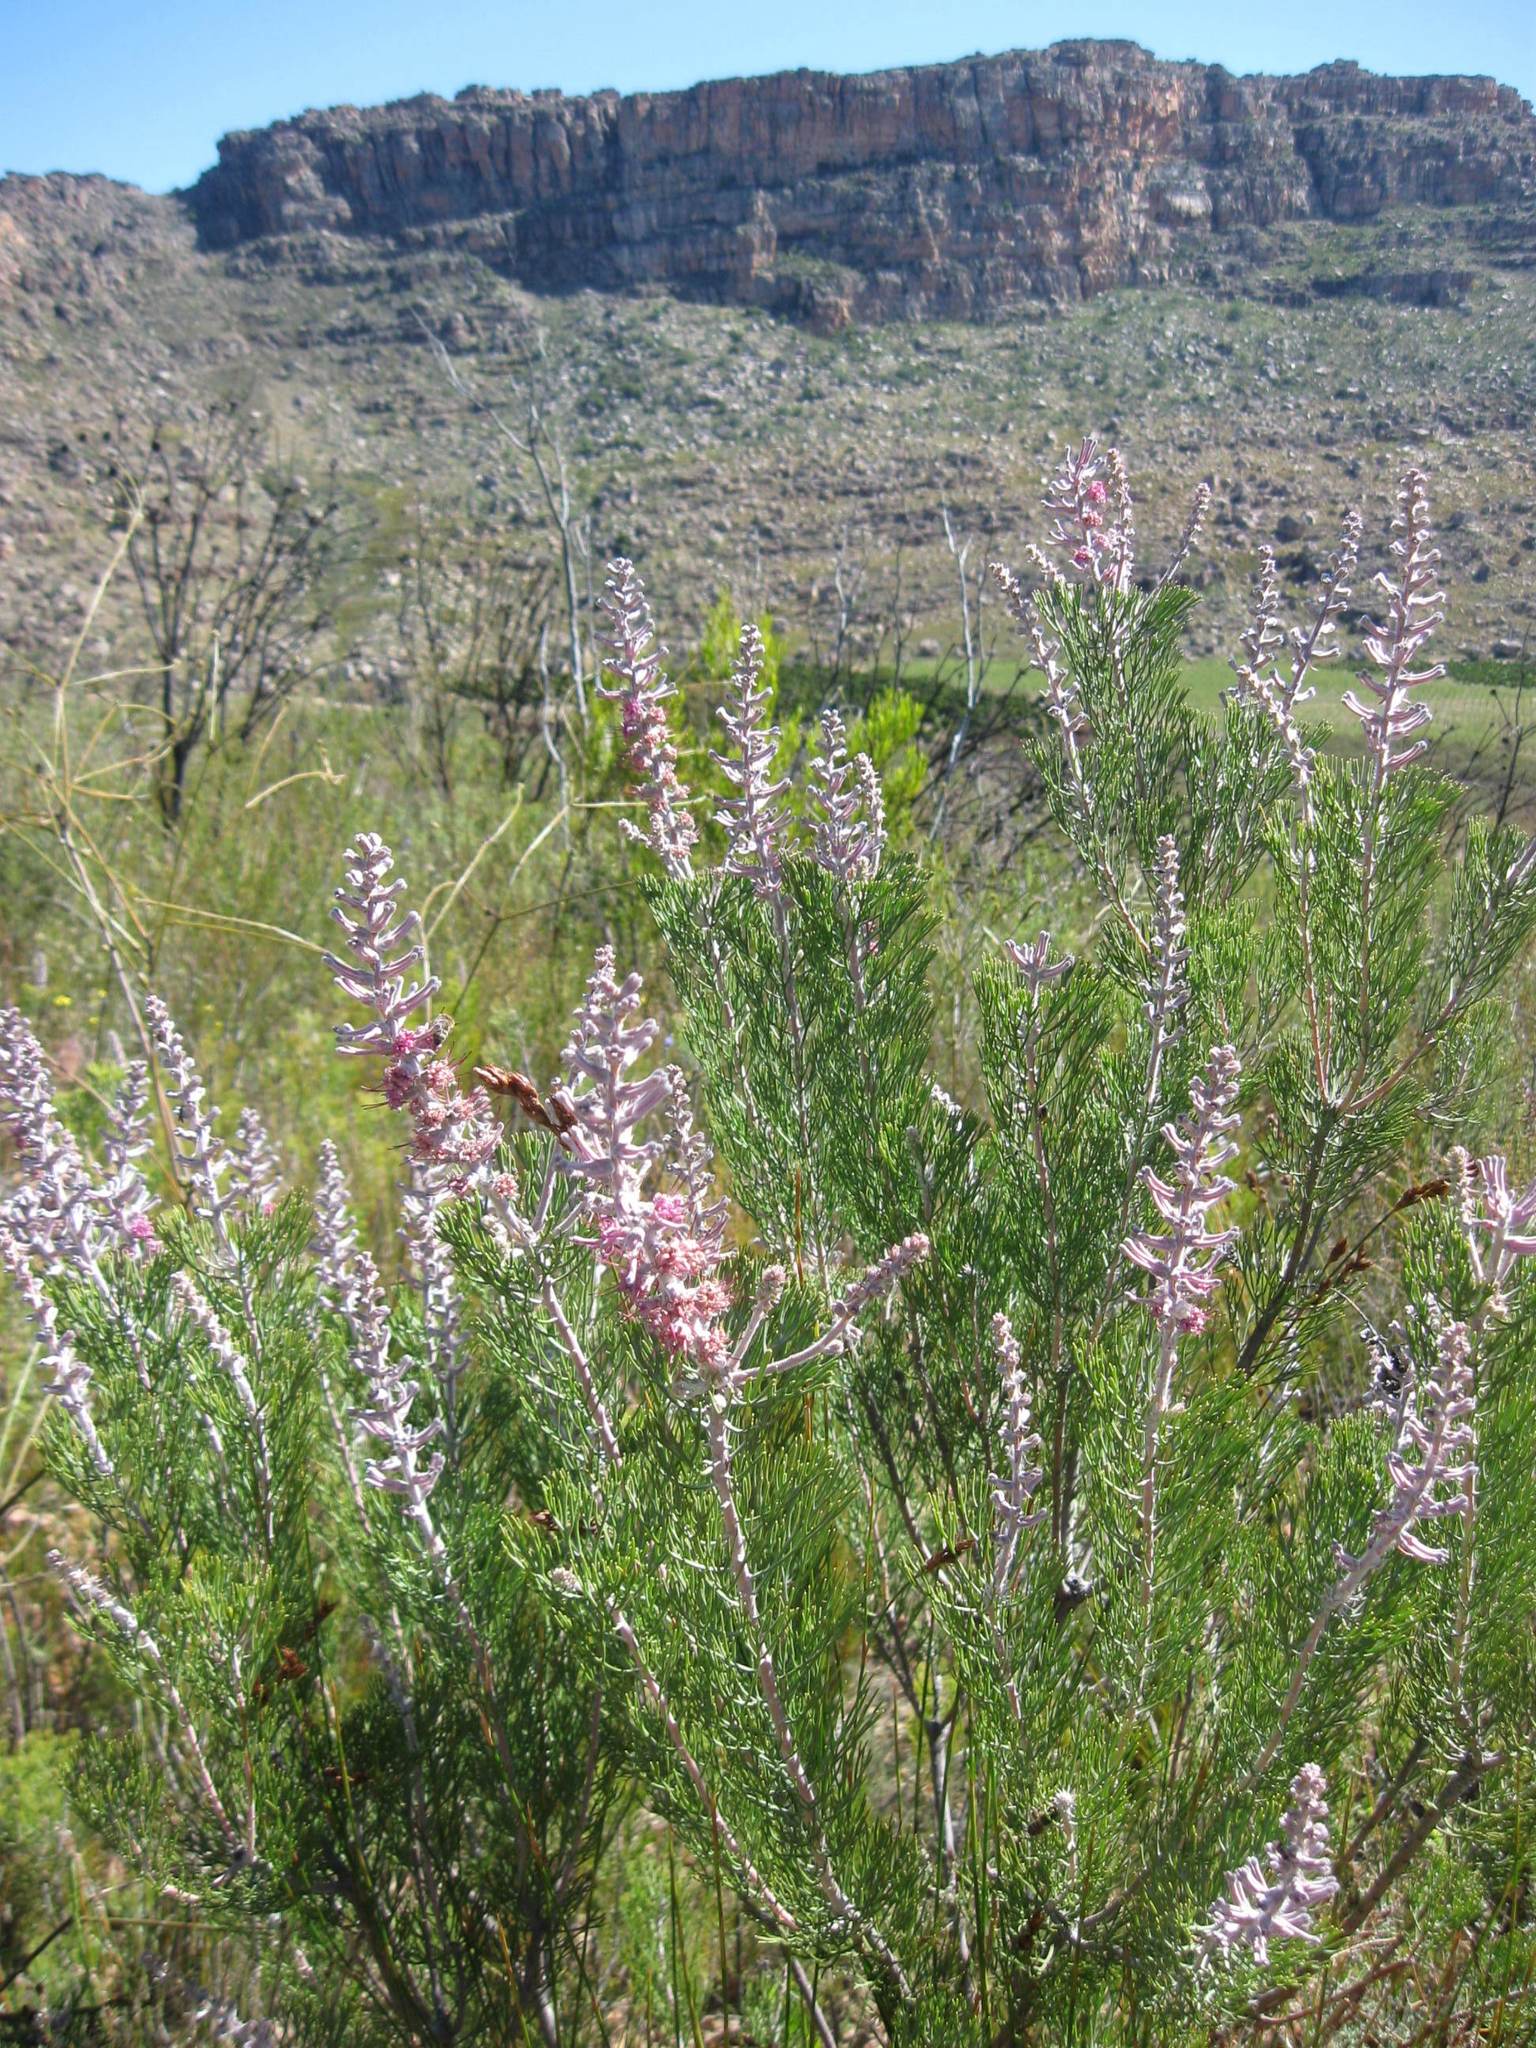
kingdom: Plantae
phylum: Tracheophyta
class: Magnoliopsida
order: Proteales
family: Proteaceae
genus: Paranomus
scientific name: Paranomus lagopus
